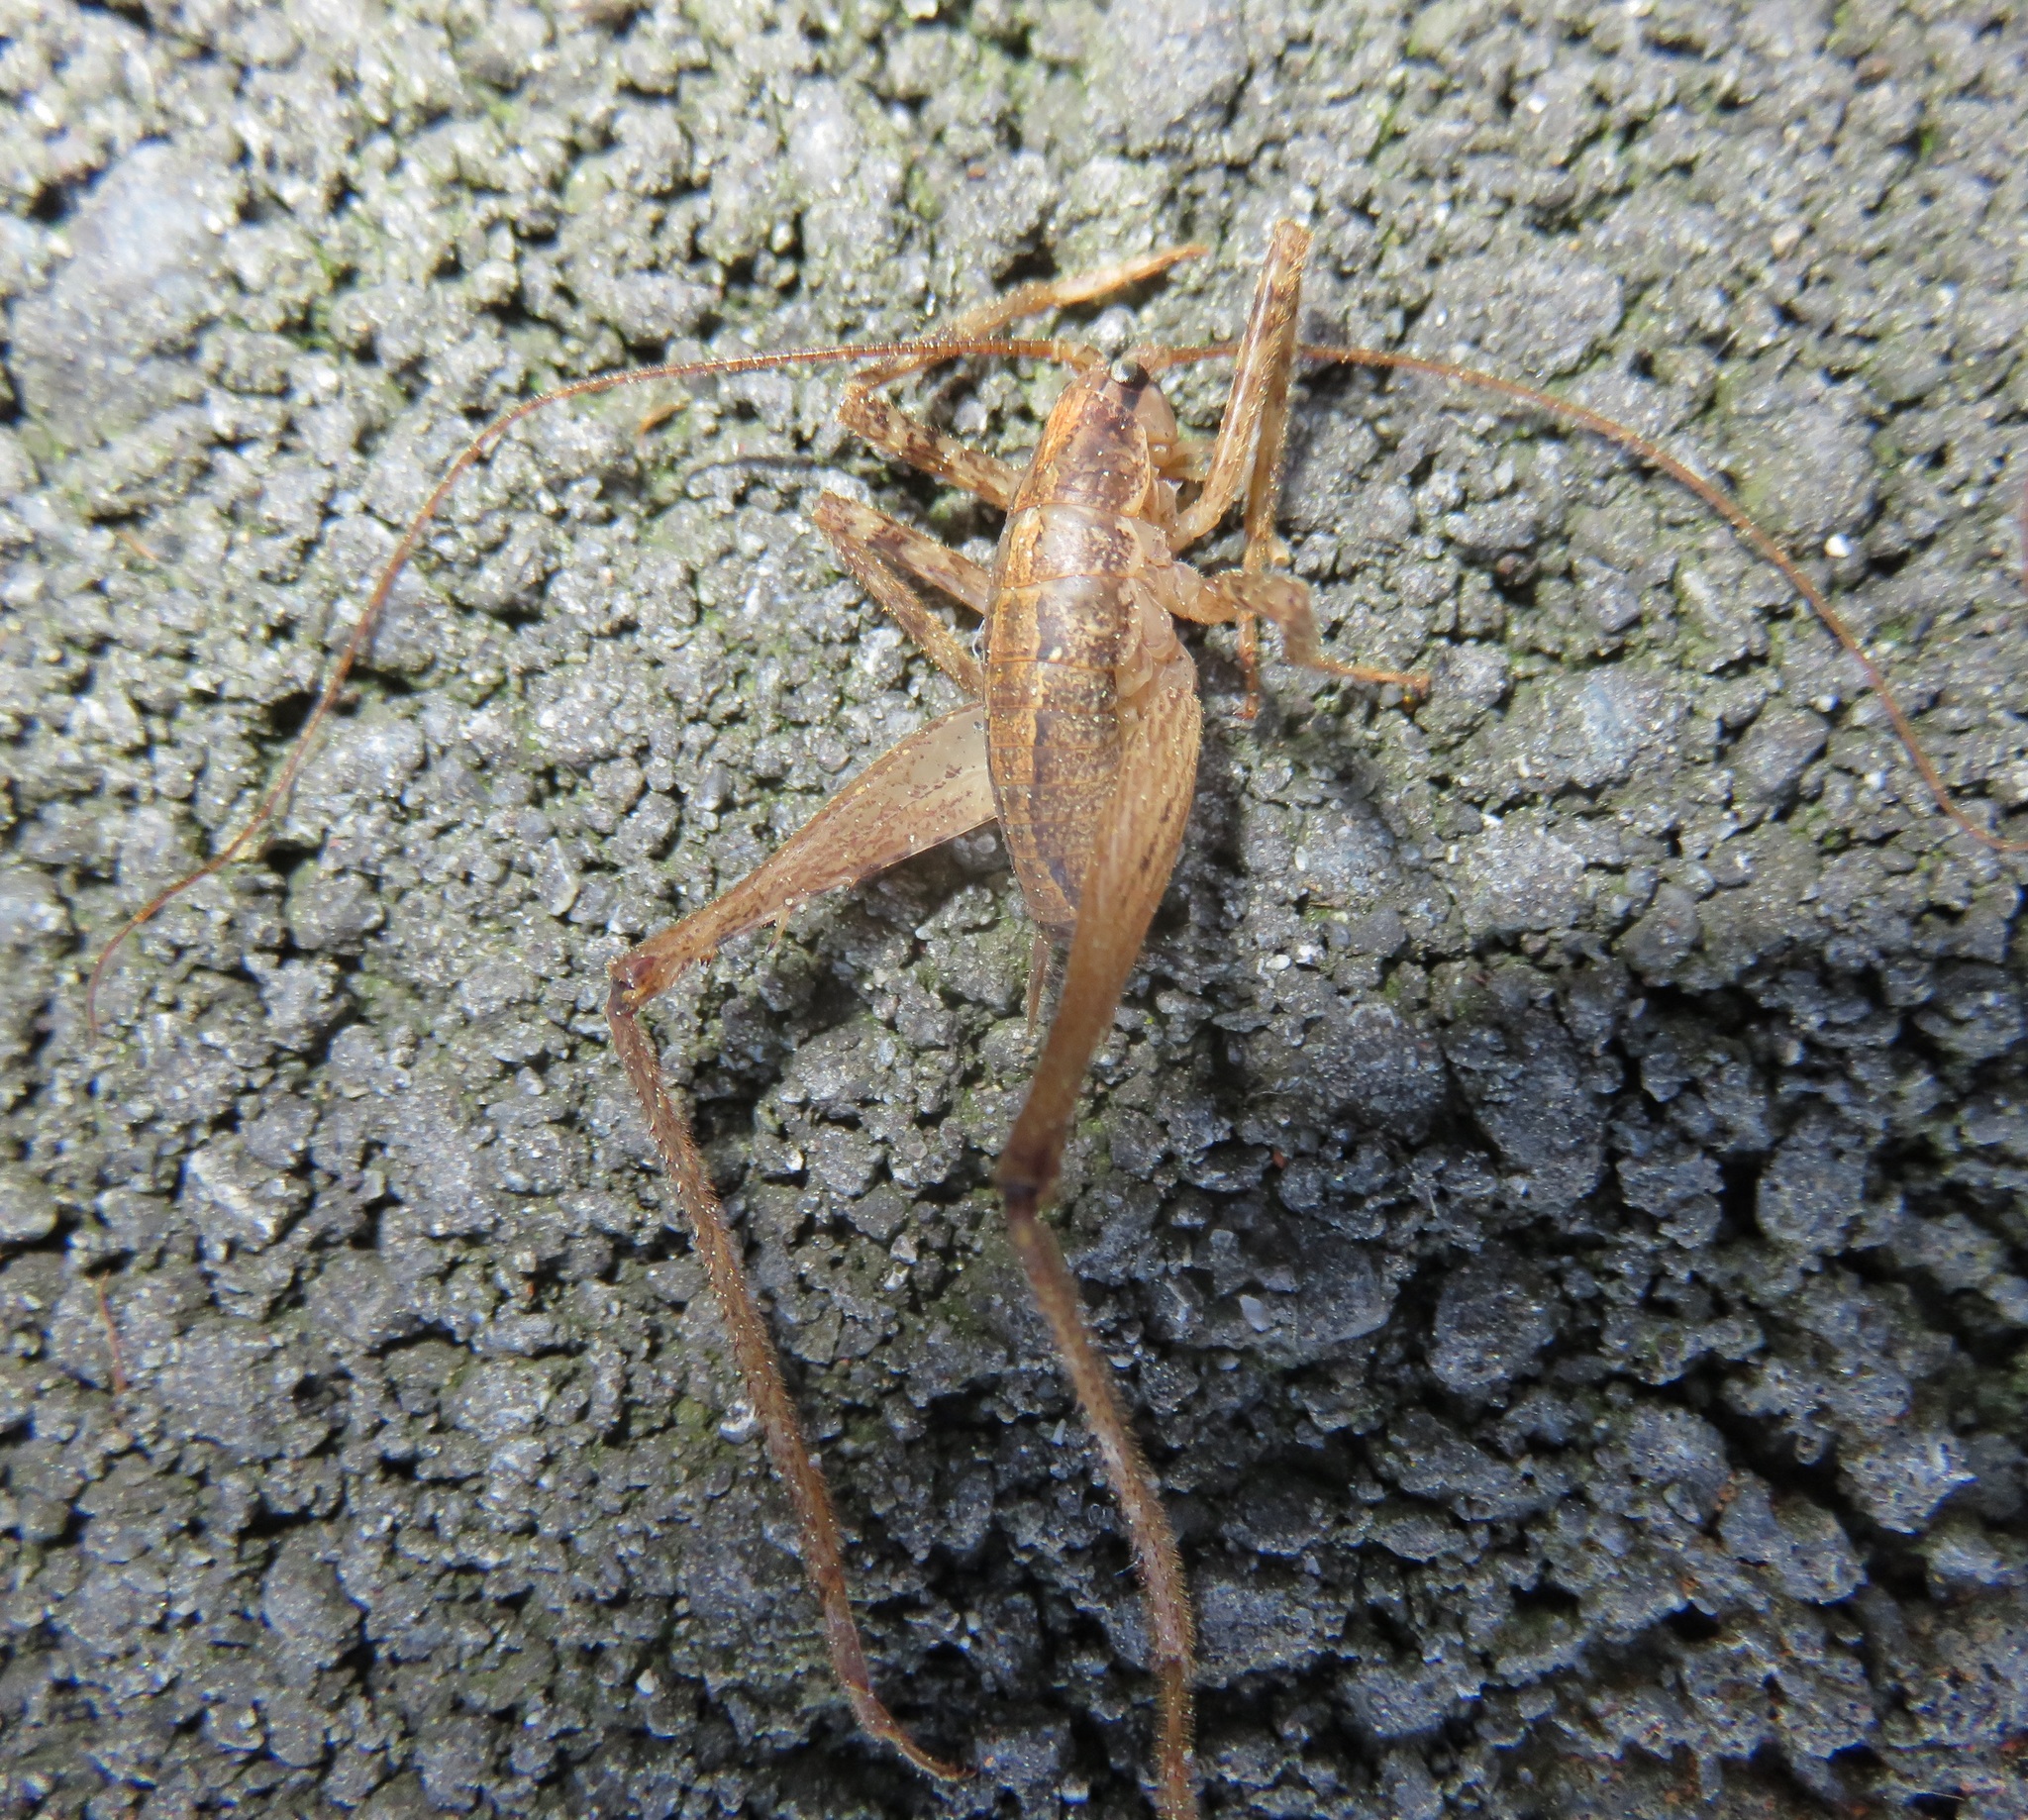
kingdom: Animalia
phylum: Arthropoda
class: Insecta
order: Orthoptera
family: Rhaphidophoridae
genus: Isoplectron
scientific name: Isoplectron armatum
